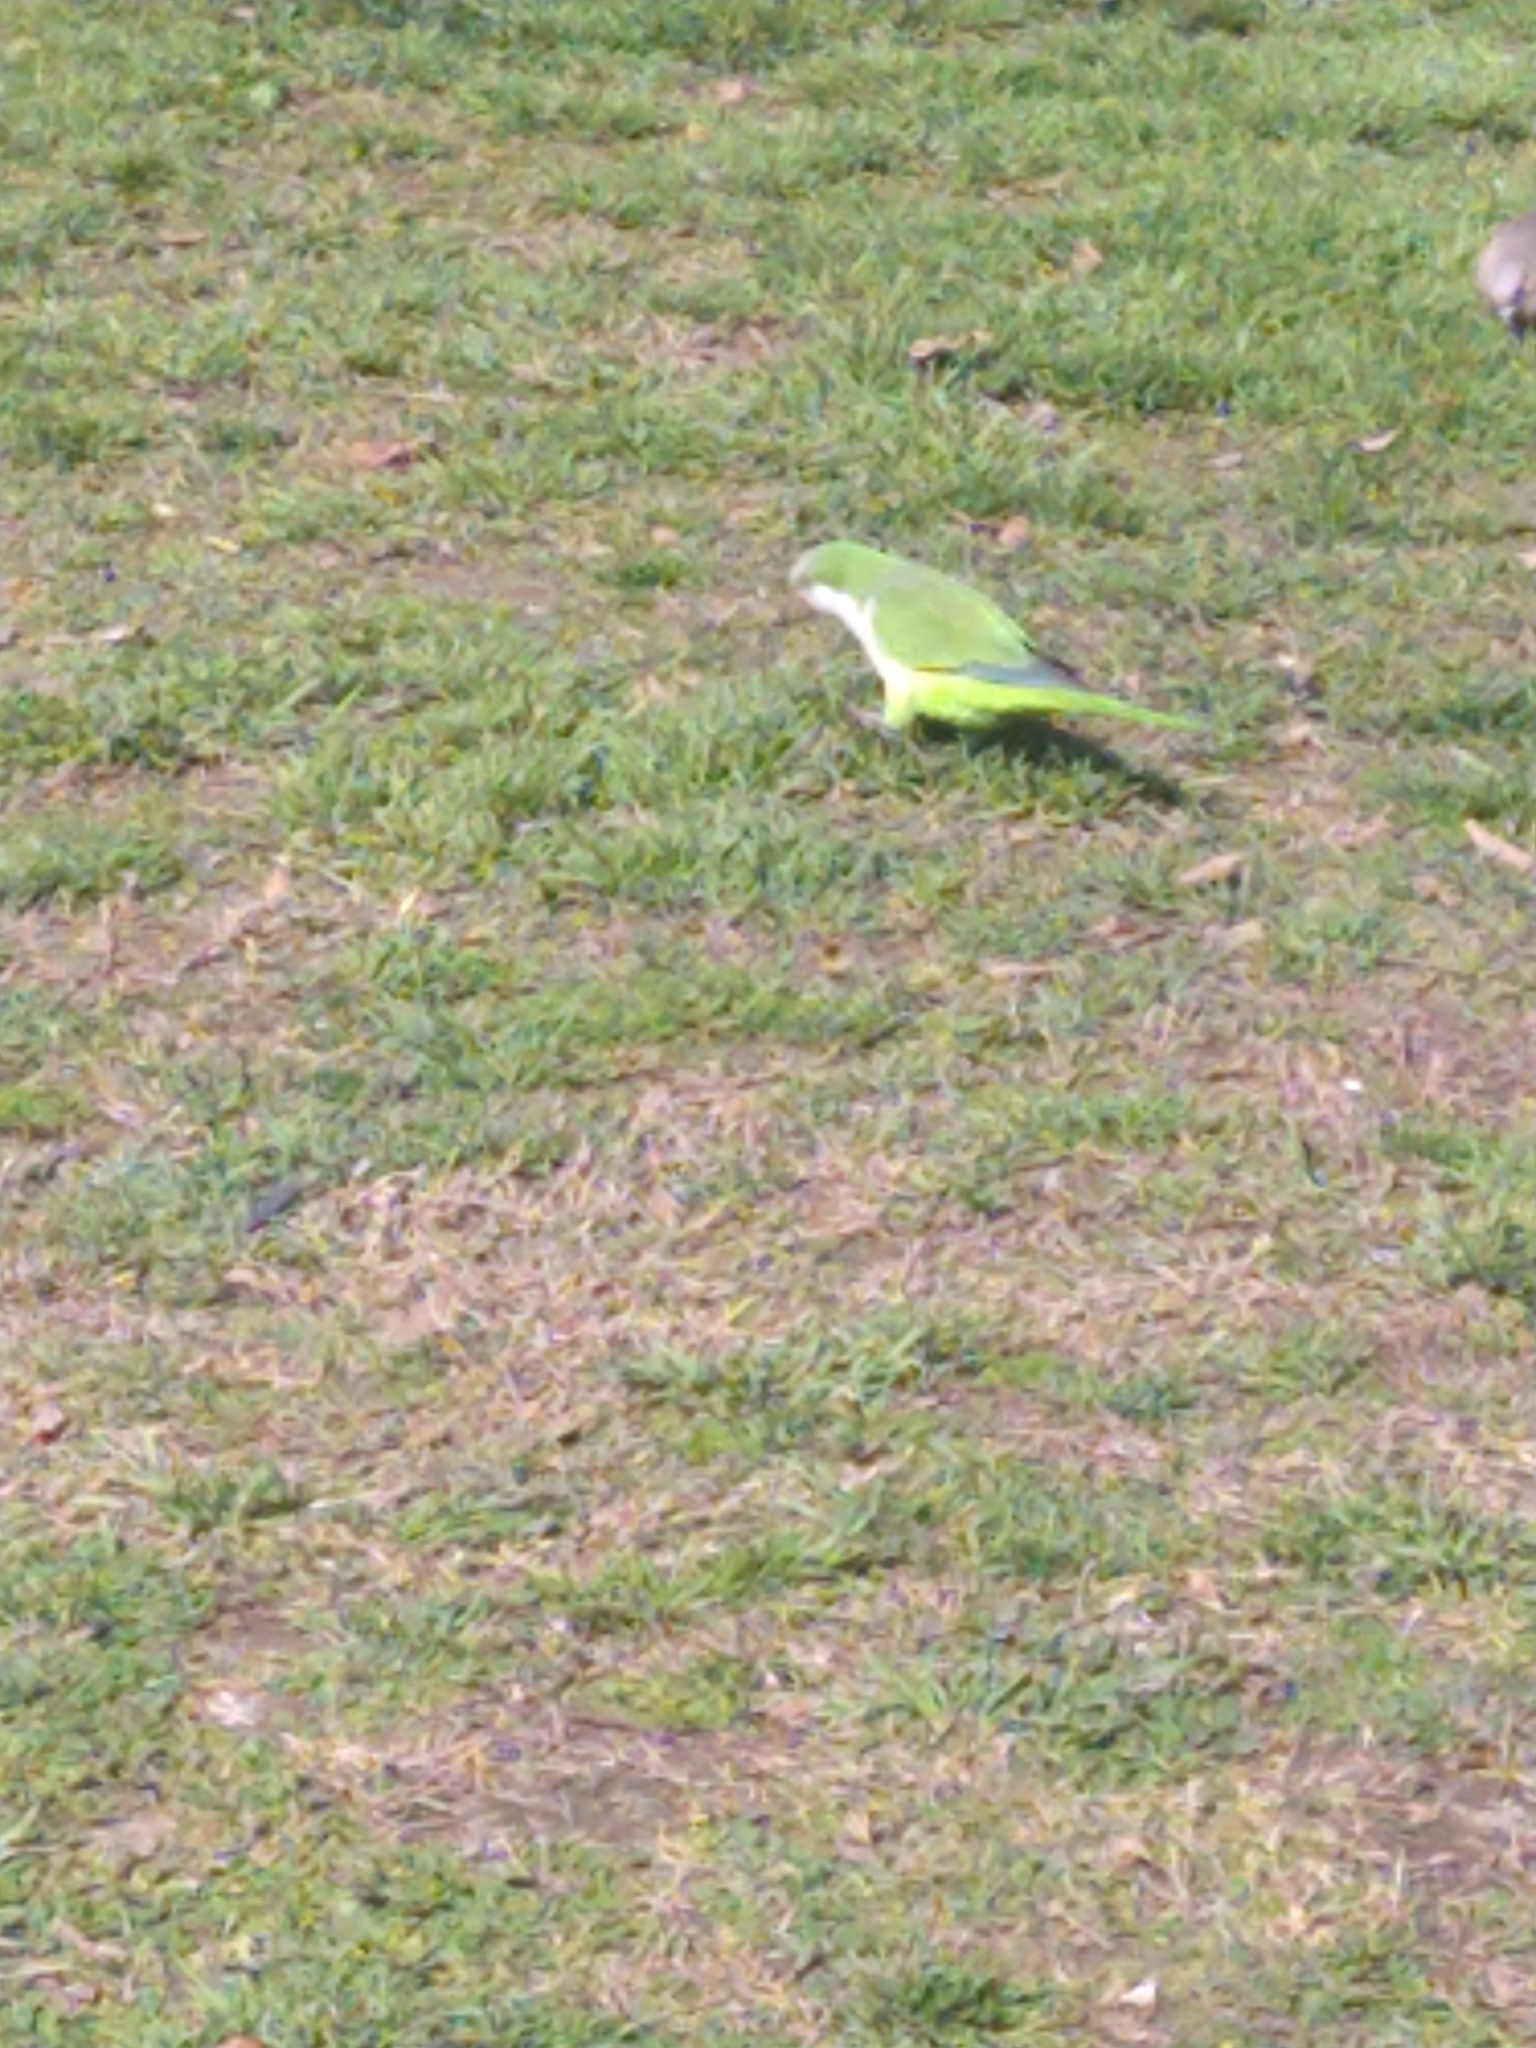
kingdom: Animalia
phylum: Chordata
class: Aves
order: Psittaciformes
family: Psittacidae
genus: Myiopsitta
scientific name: Myiopsitta monachus
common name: Monk parakeet
